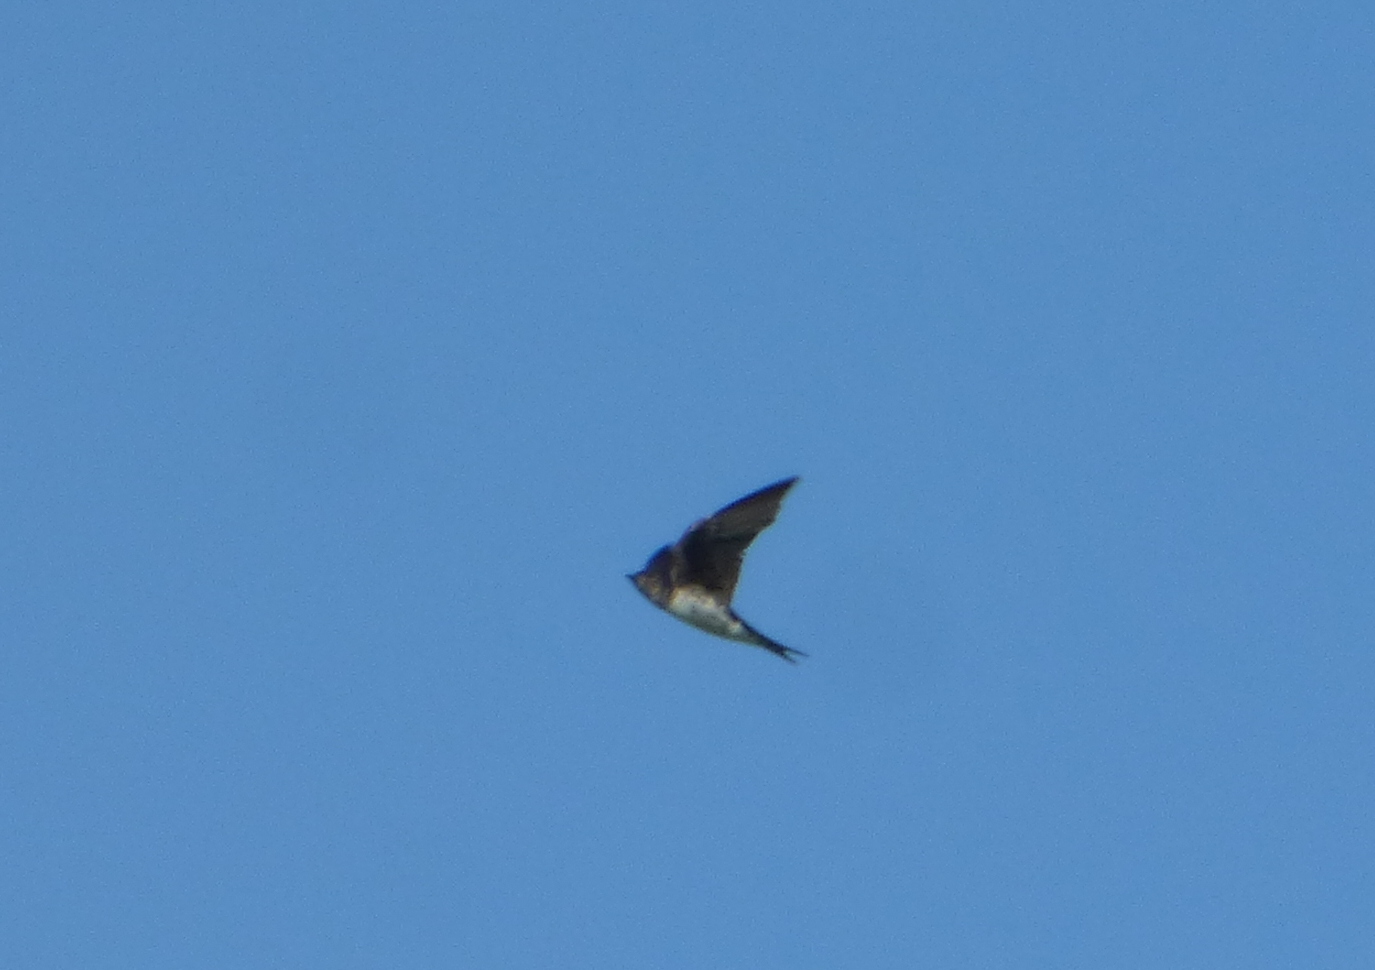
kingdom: Animalia
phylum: Chordata
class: Aves
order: Passeriformes
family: Hirundinidae
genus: Progne
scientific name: Progne chalybea
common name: Grey-breasted martin
